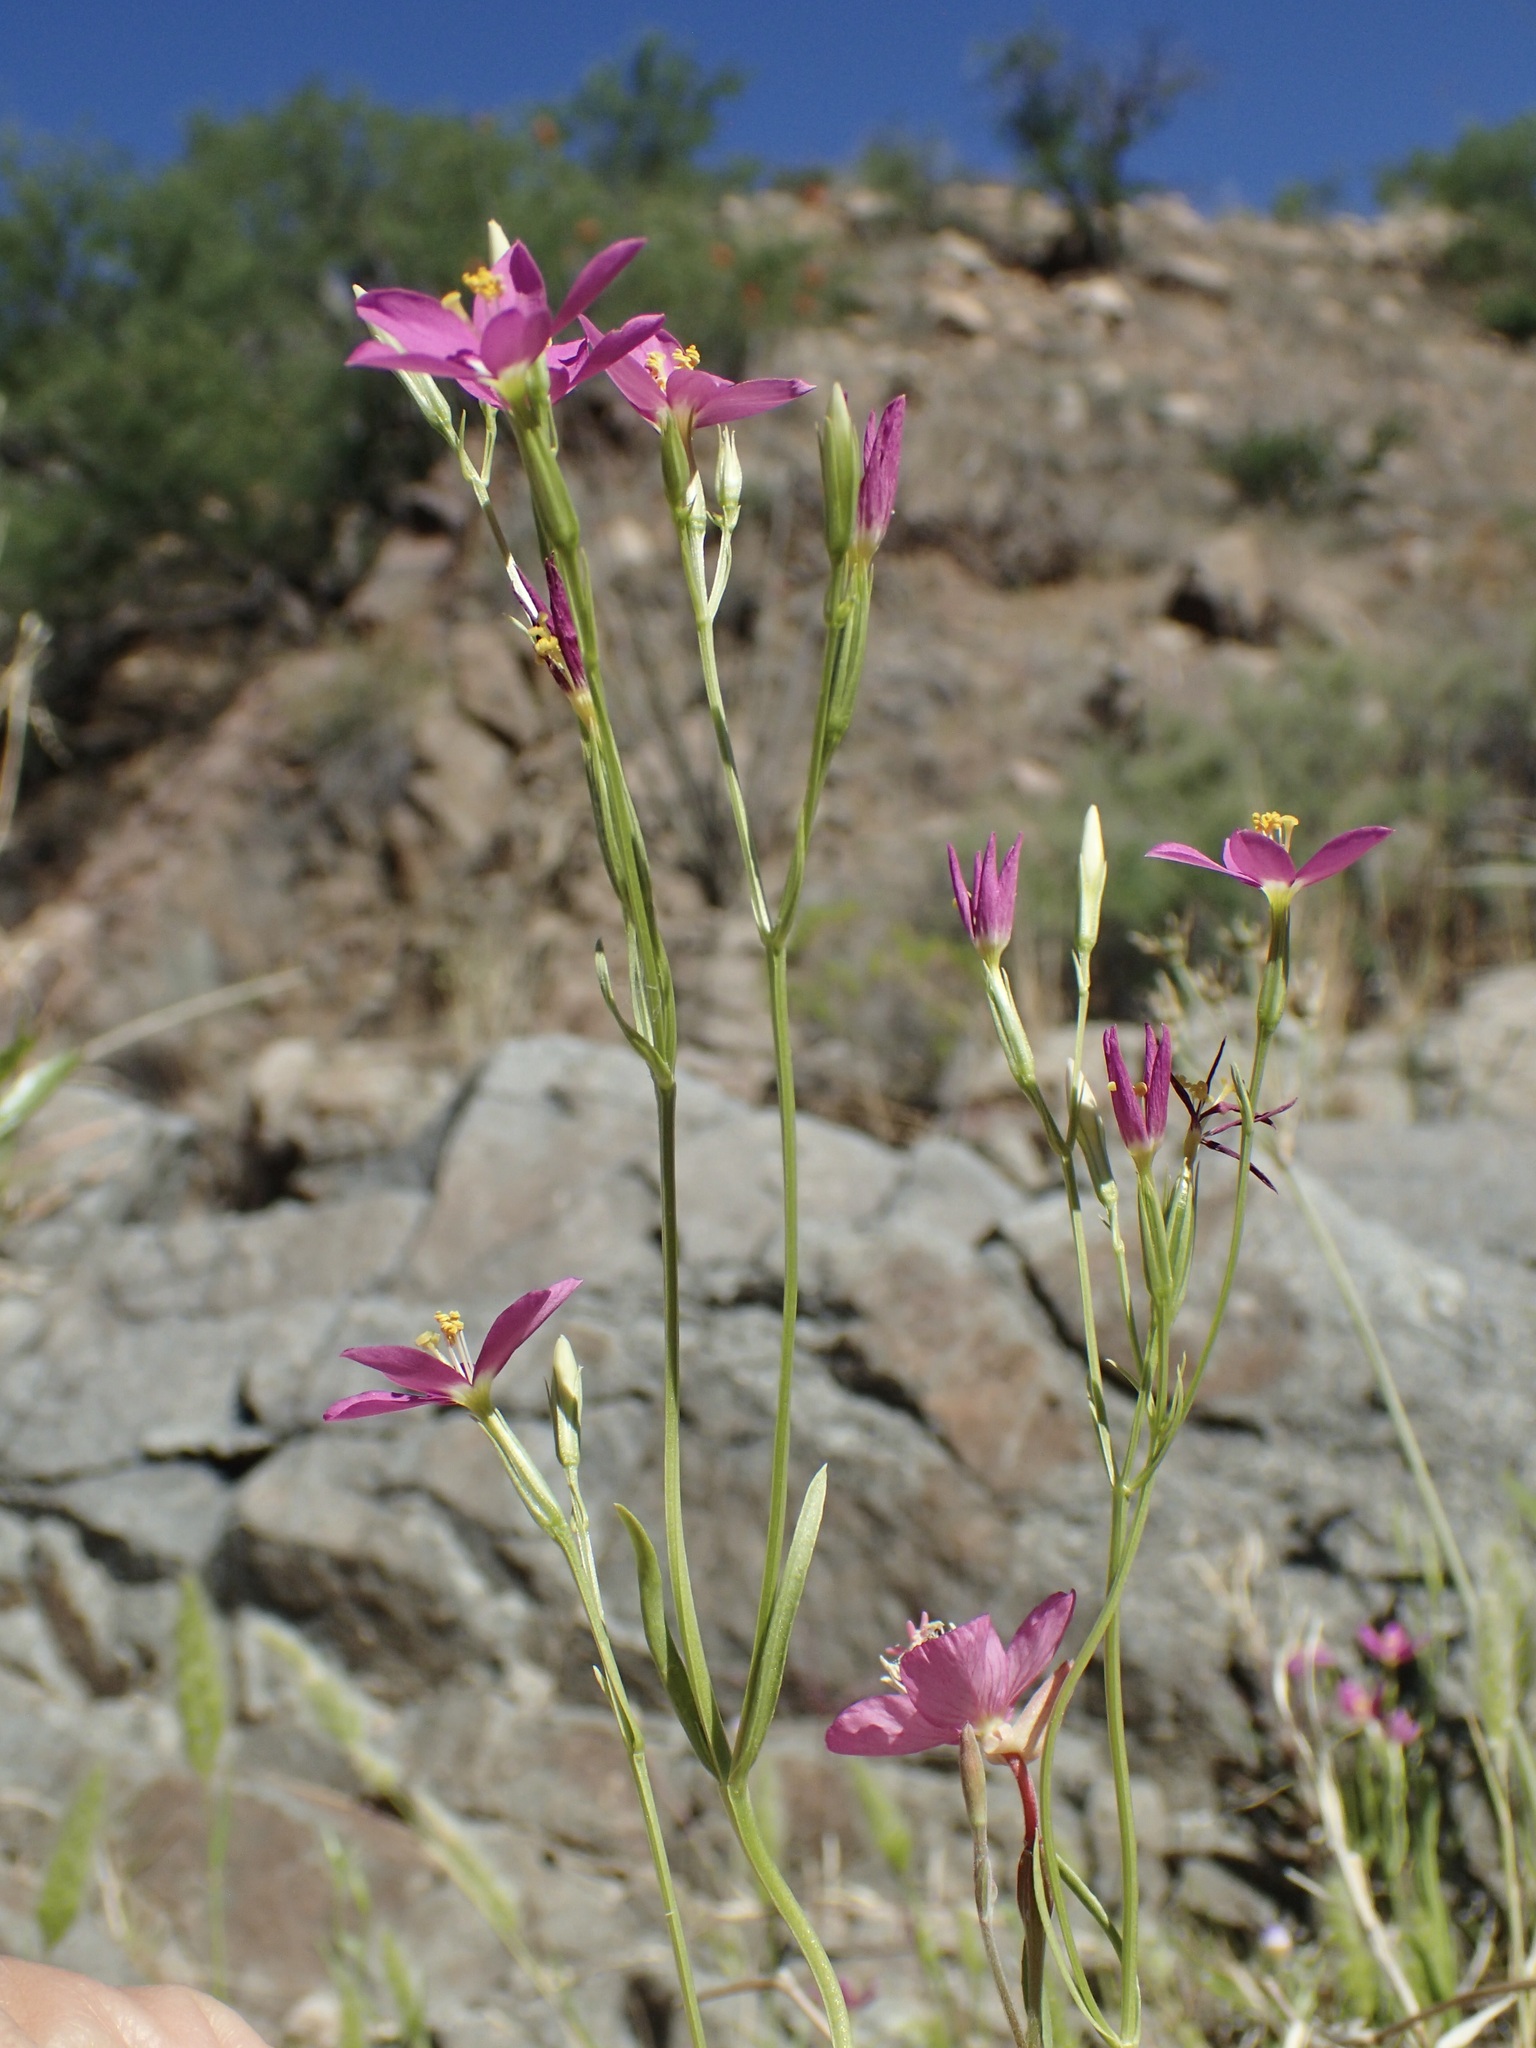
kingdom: Plantae
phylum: Tracheophyta
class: Magnoliopsida
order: Gentianales
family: Gentianaceae
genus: Zeltnera
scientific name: Zeltnera arizonica
